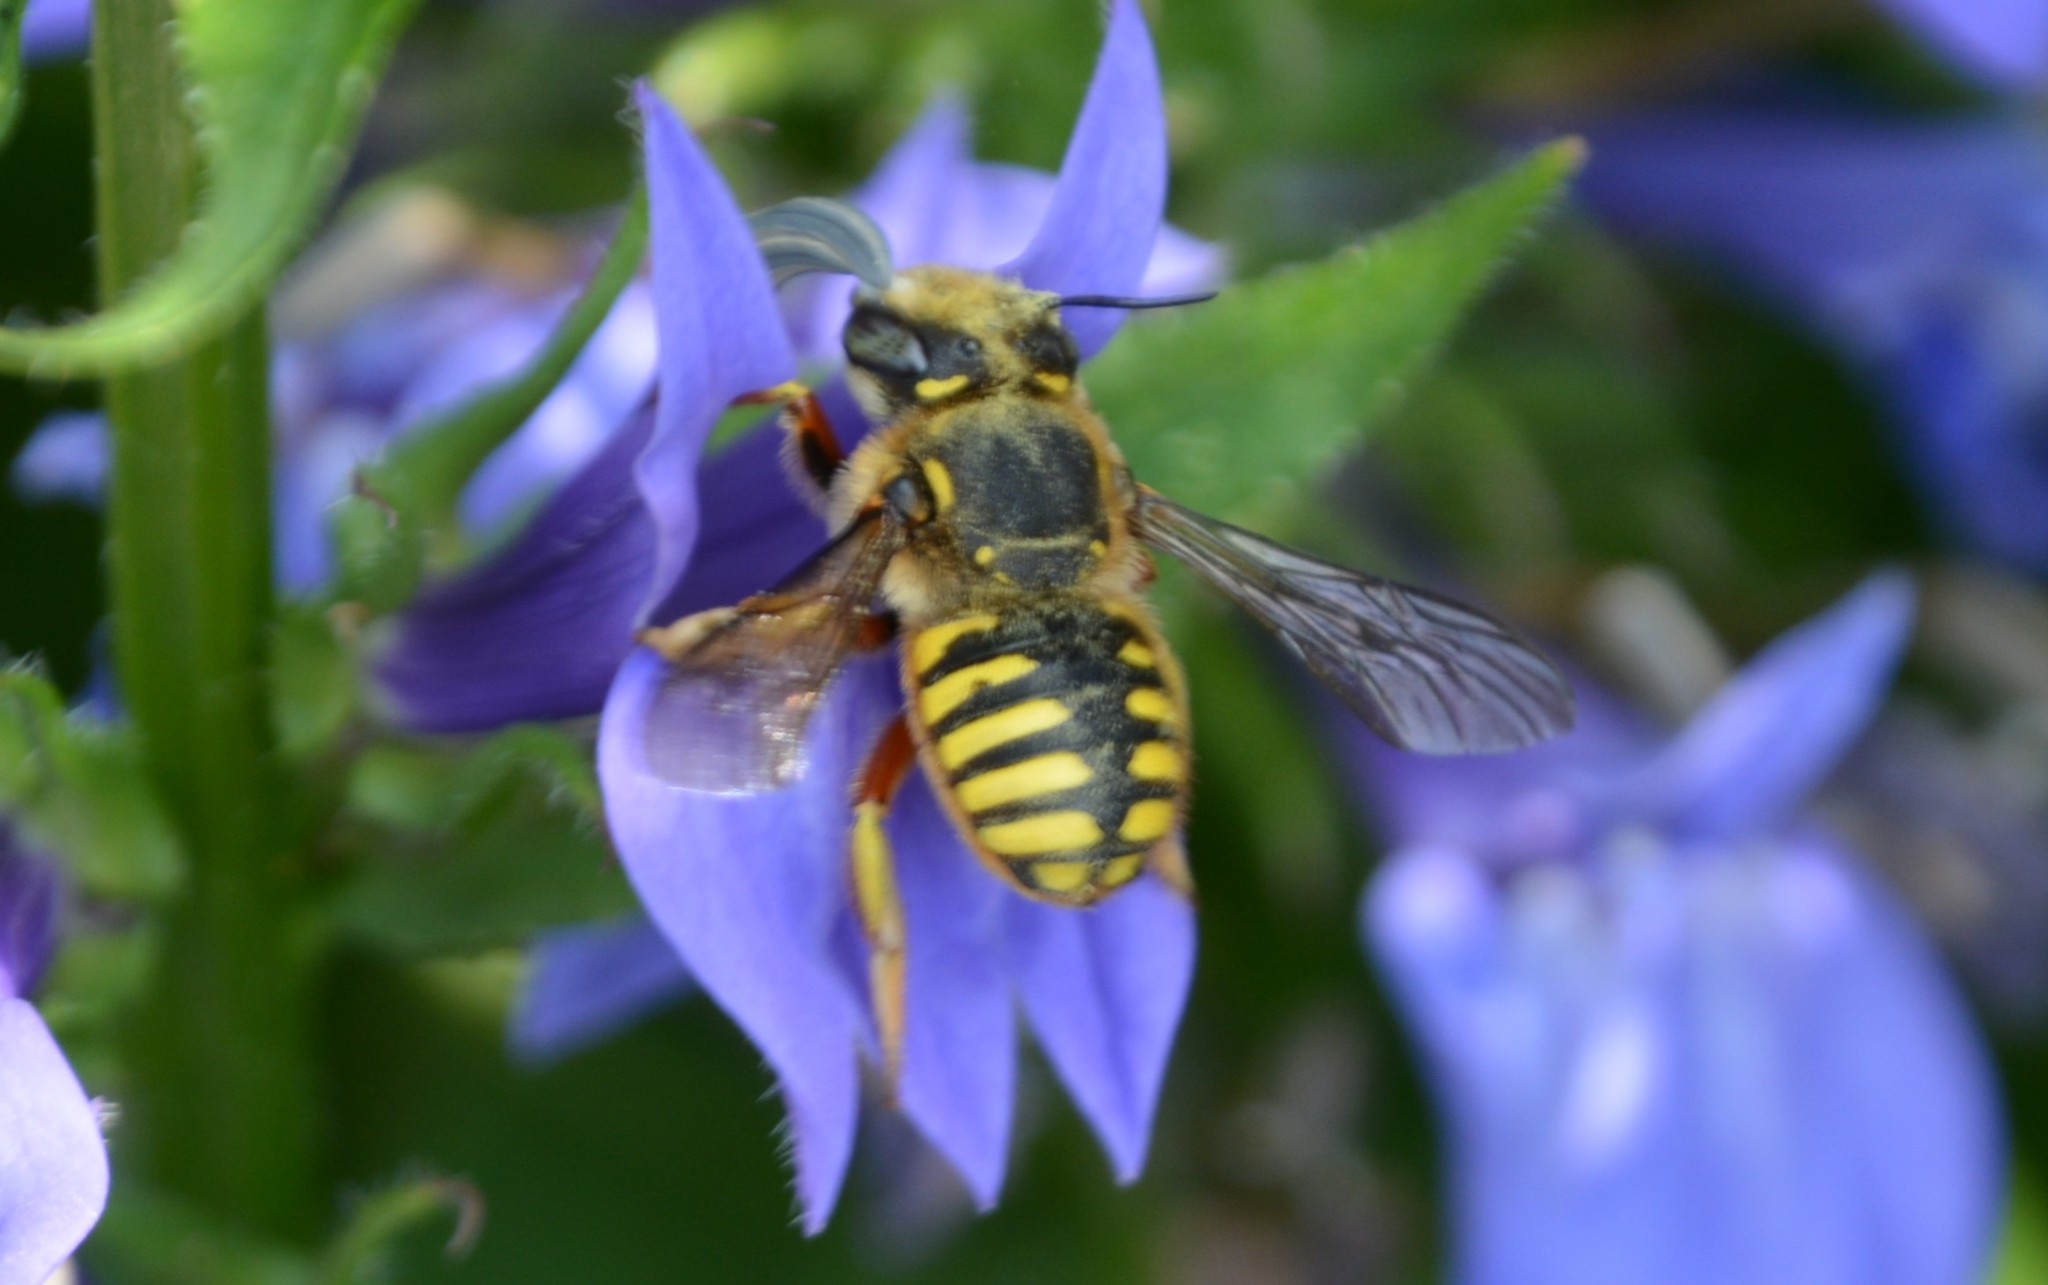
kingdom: Animalia
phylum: Arthropoda
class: Insecta
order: Hymenoptera
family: Megachilidae
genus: Anthidium
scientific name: Anthidium manicatum
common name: Wool carder bee
